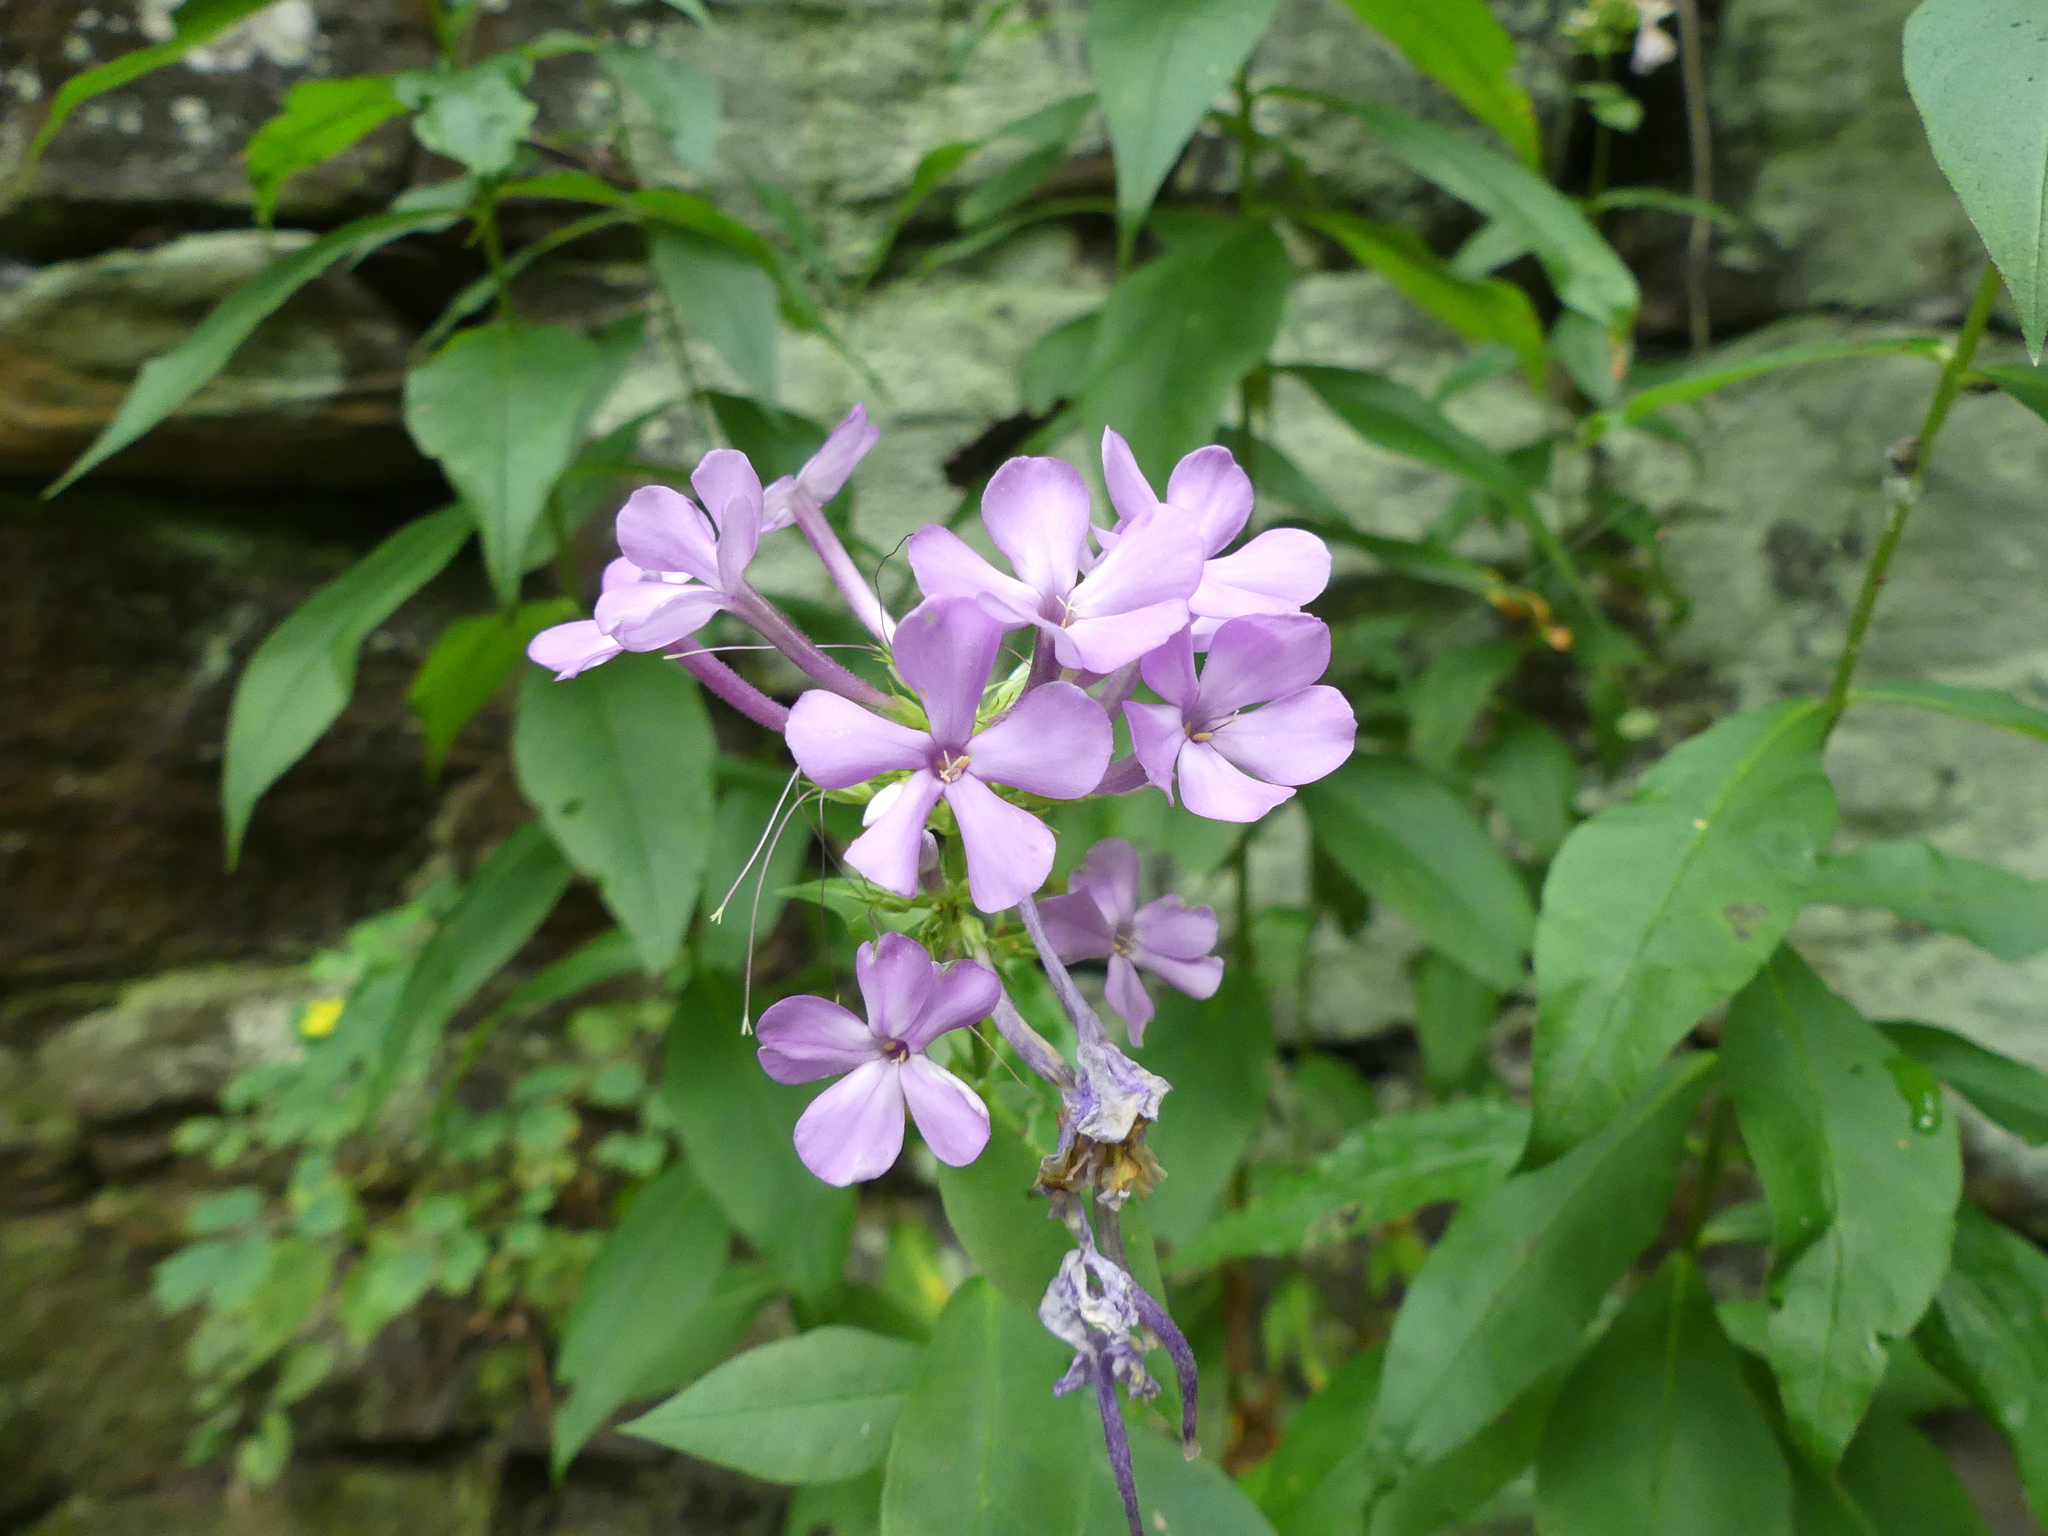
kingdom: Plantae
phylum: Tracheophyta
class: Magnoliopsida
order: Ericales
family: Polemoniaceae
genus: Phlox
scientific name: Phlox paniculata
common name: Fall phlox
